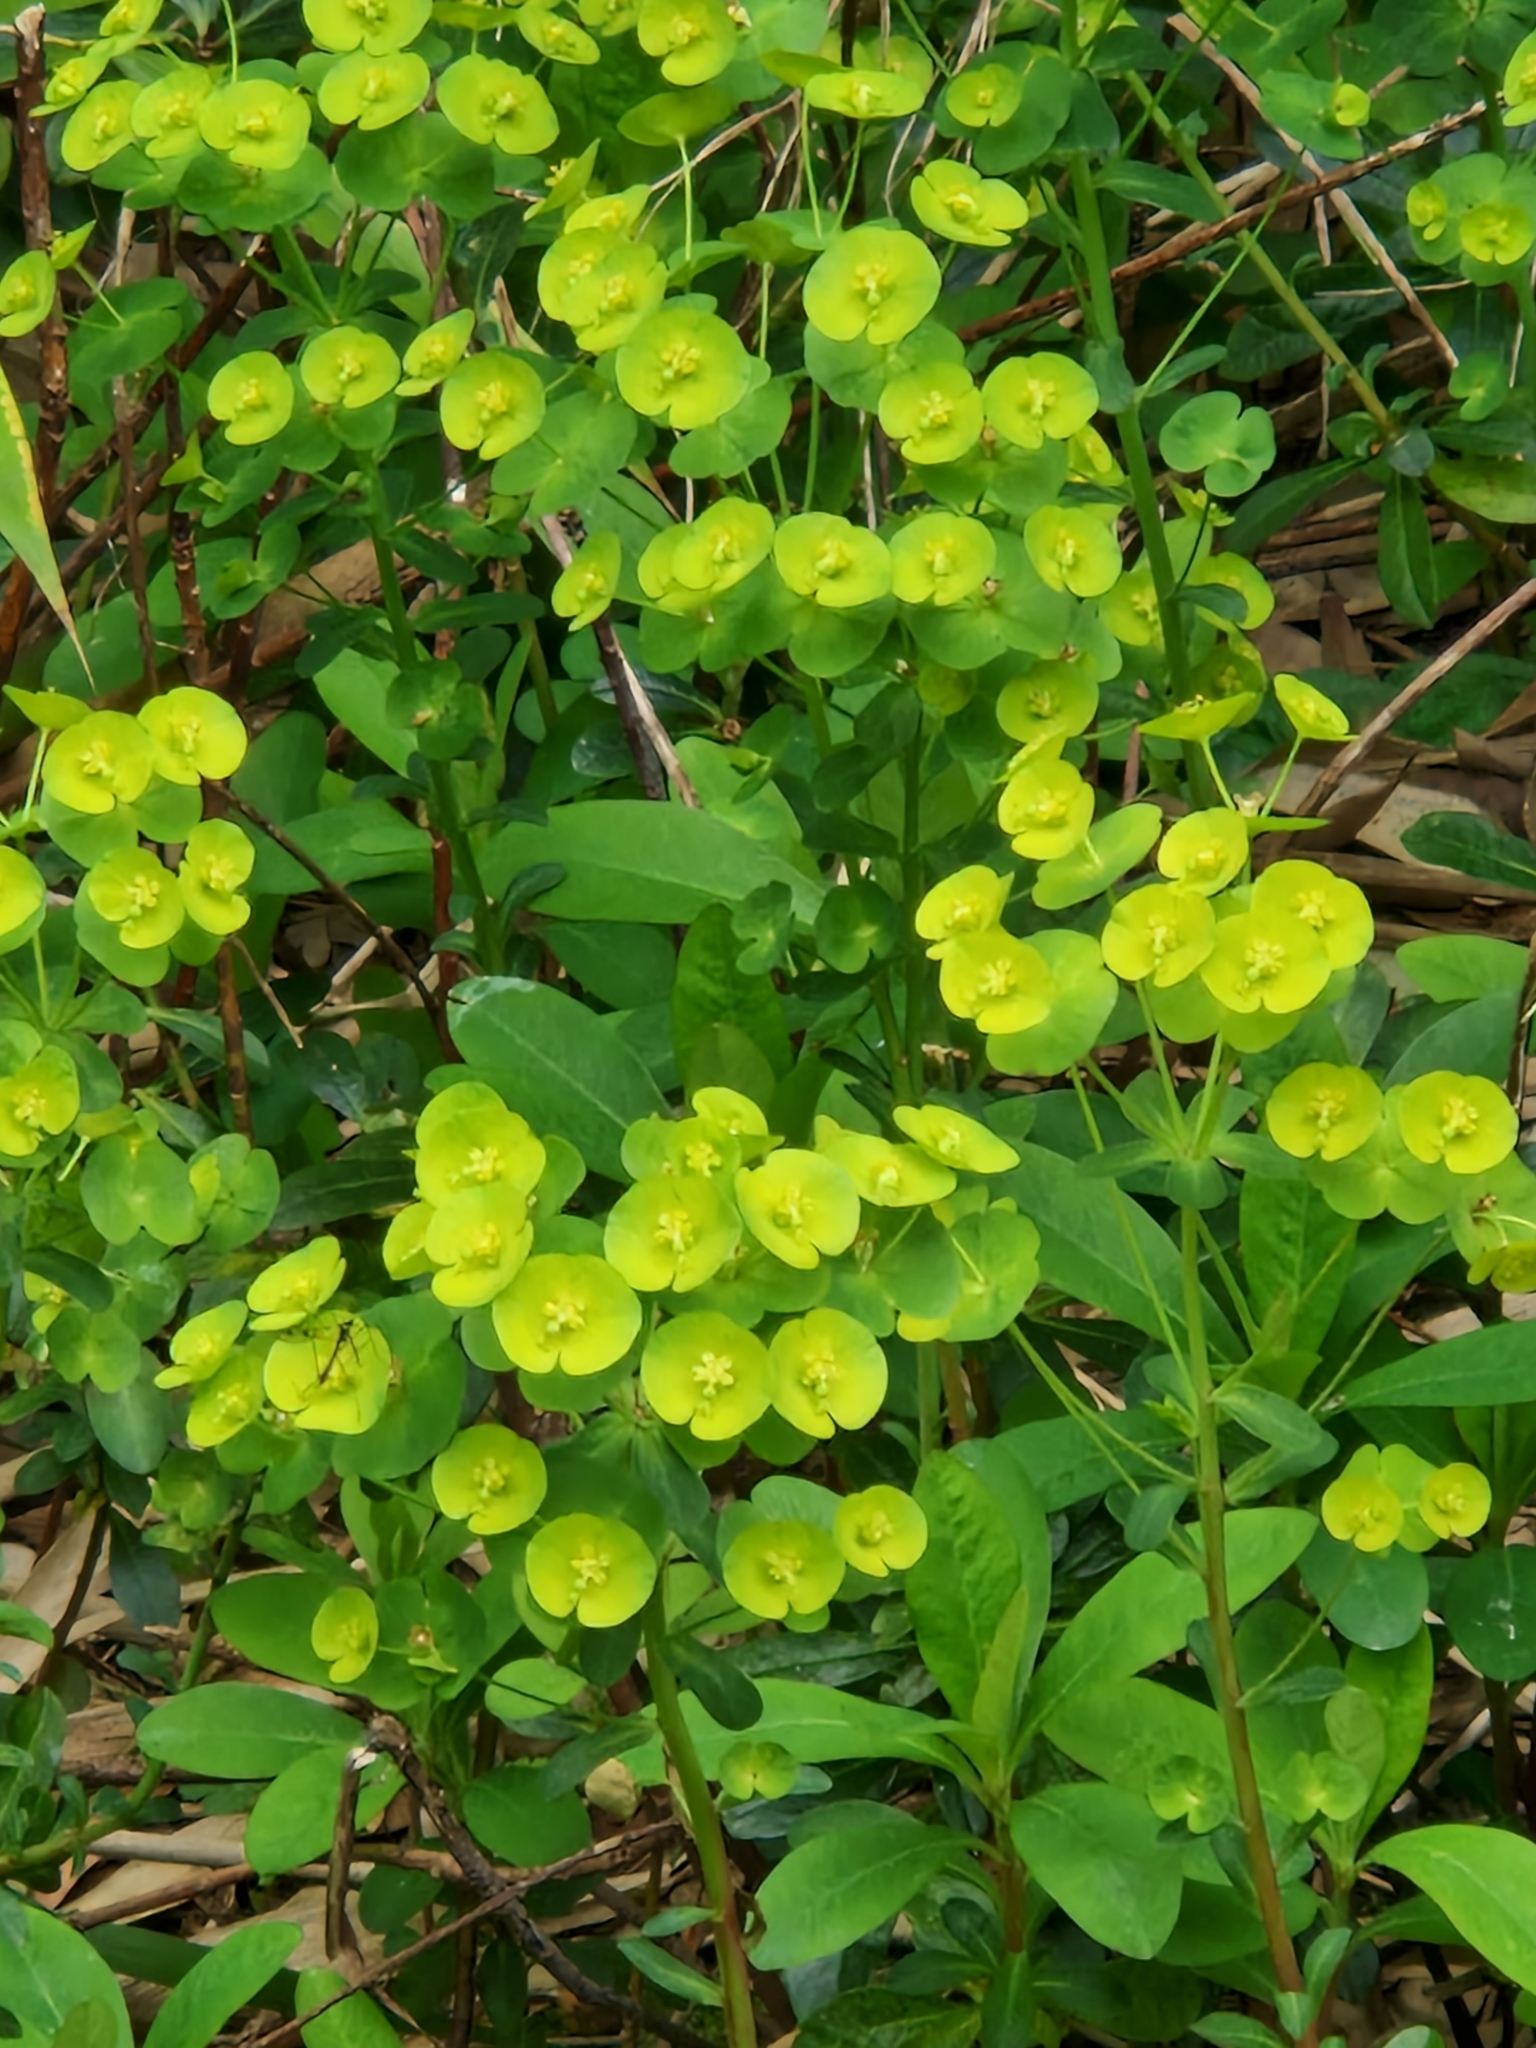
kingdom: Plantae
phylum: Tracheophyta
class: Magnoliopsida
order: Malpighiales
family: Euphorbiaceae
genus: Euphorbia
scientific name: Euphorbia amygdaloides
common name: Wood spurge
